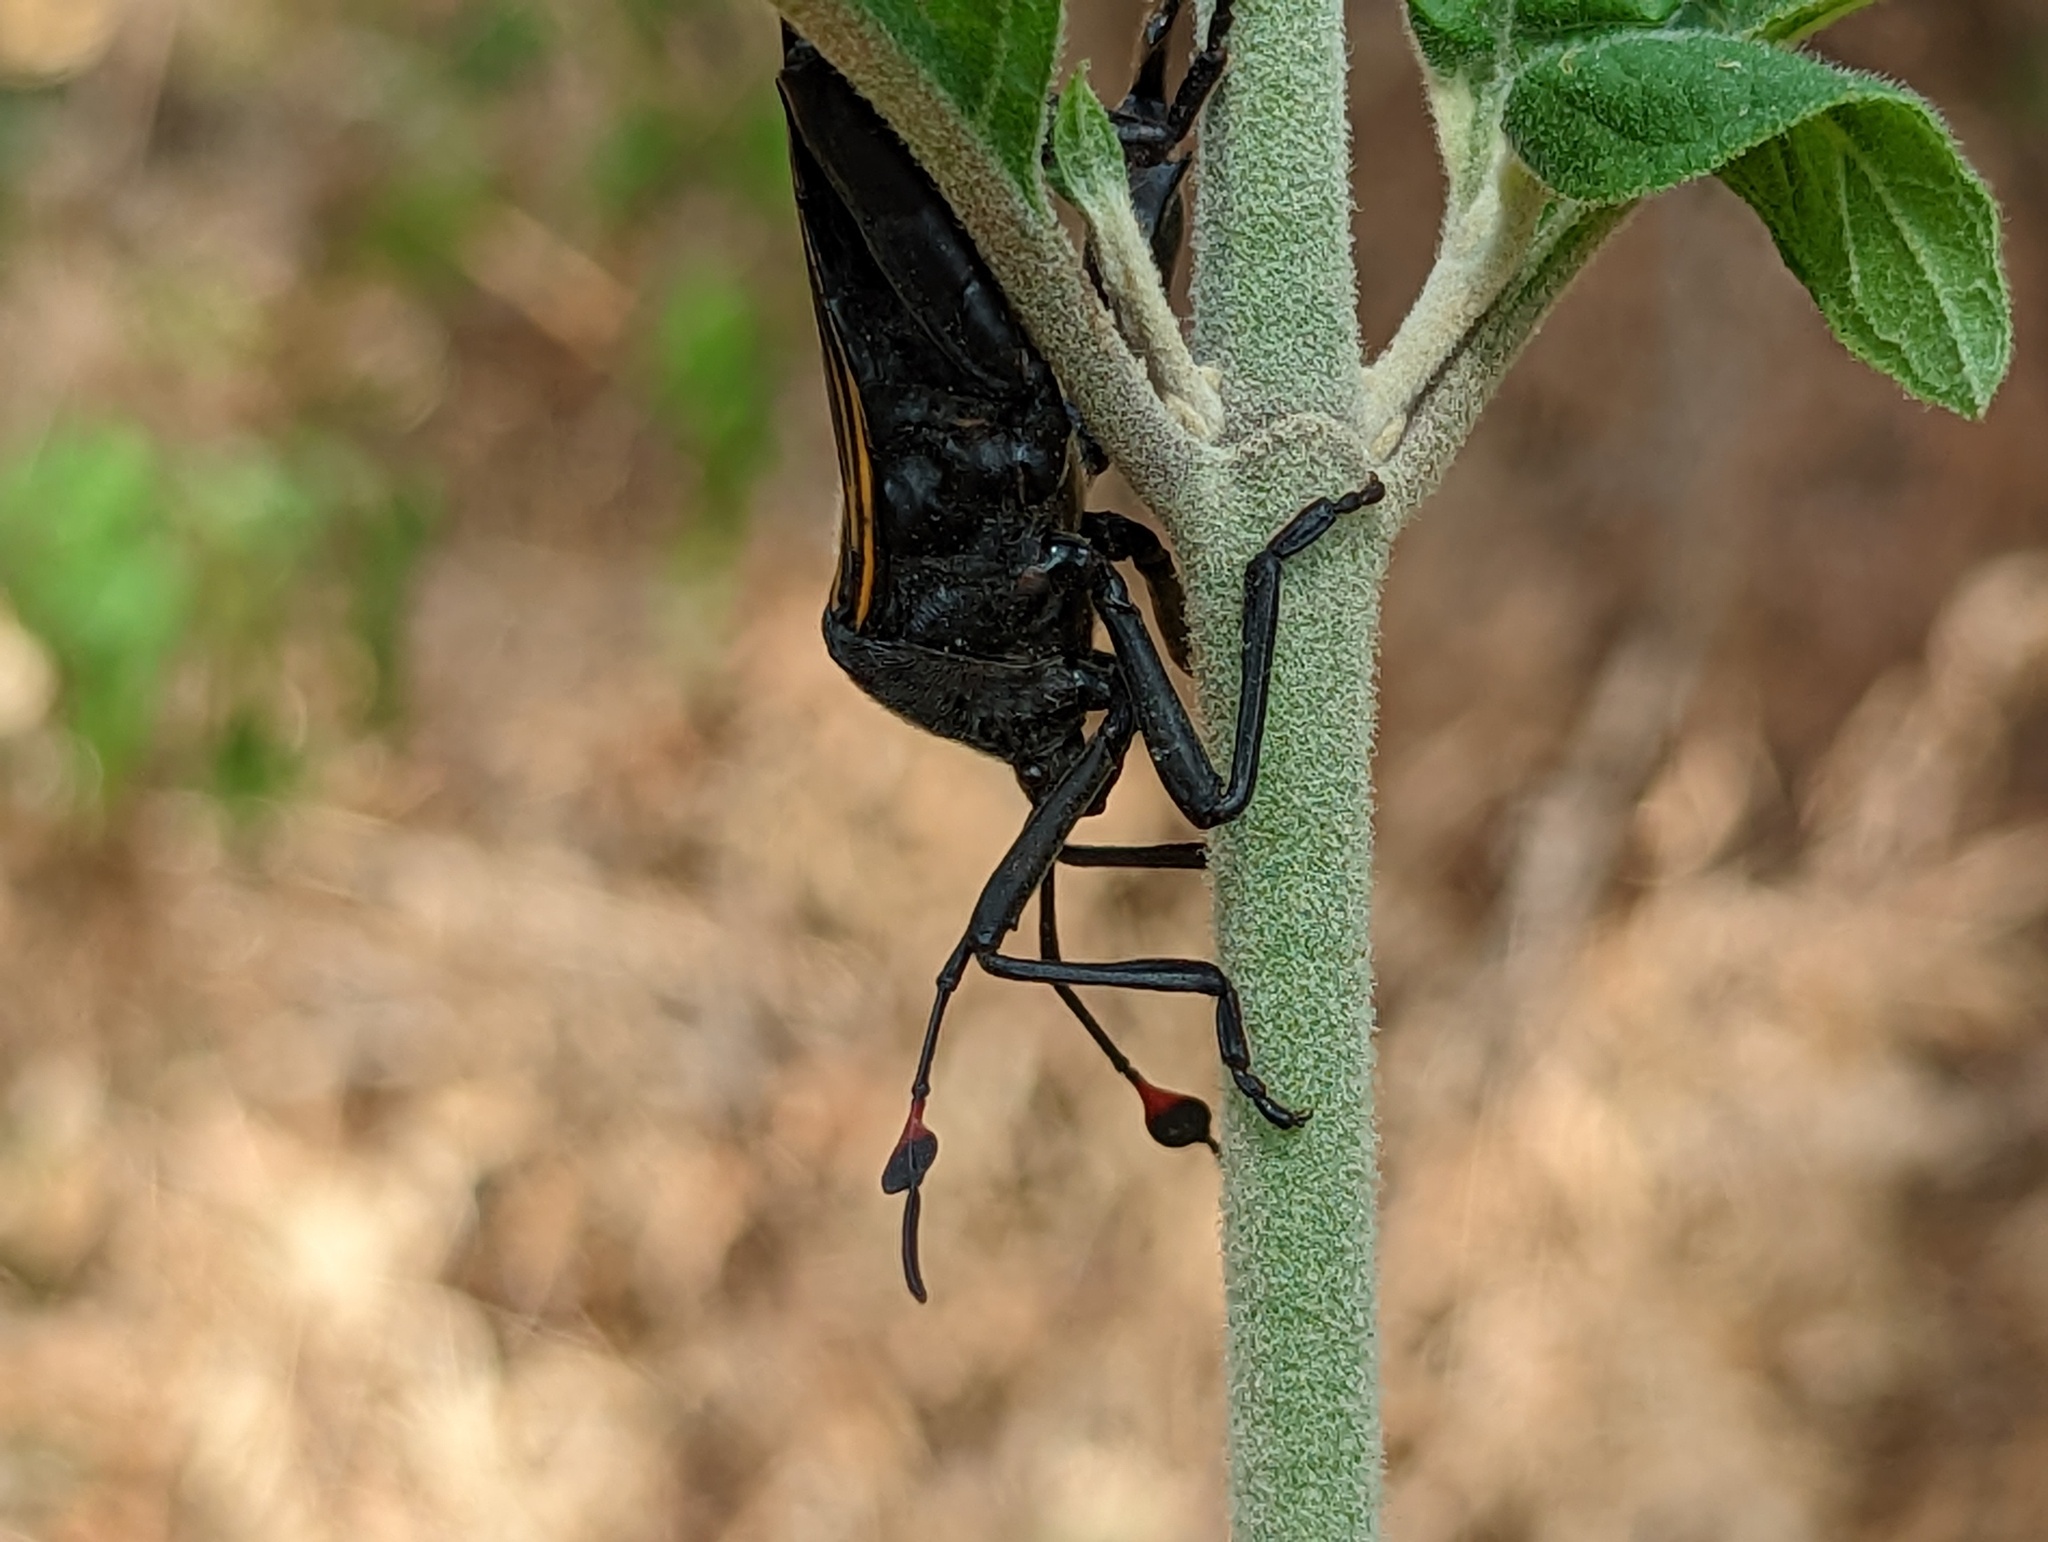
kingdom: Animalia
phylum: Arthropoda
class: Insecta
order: Hemiptera
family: Coreidae
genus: Thasus
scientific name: Thasus
